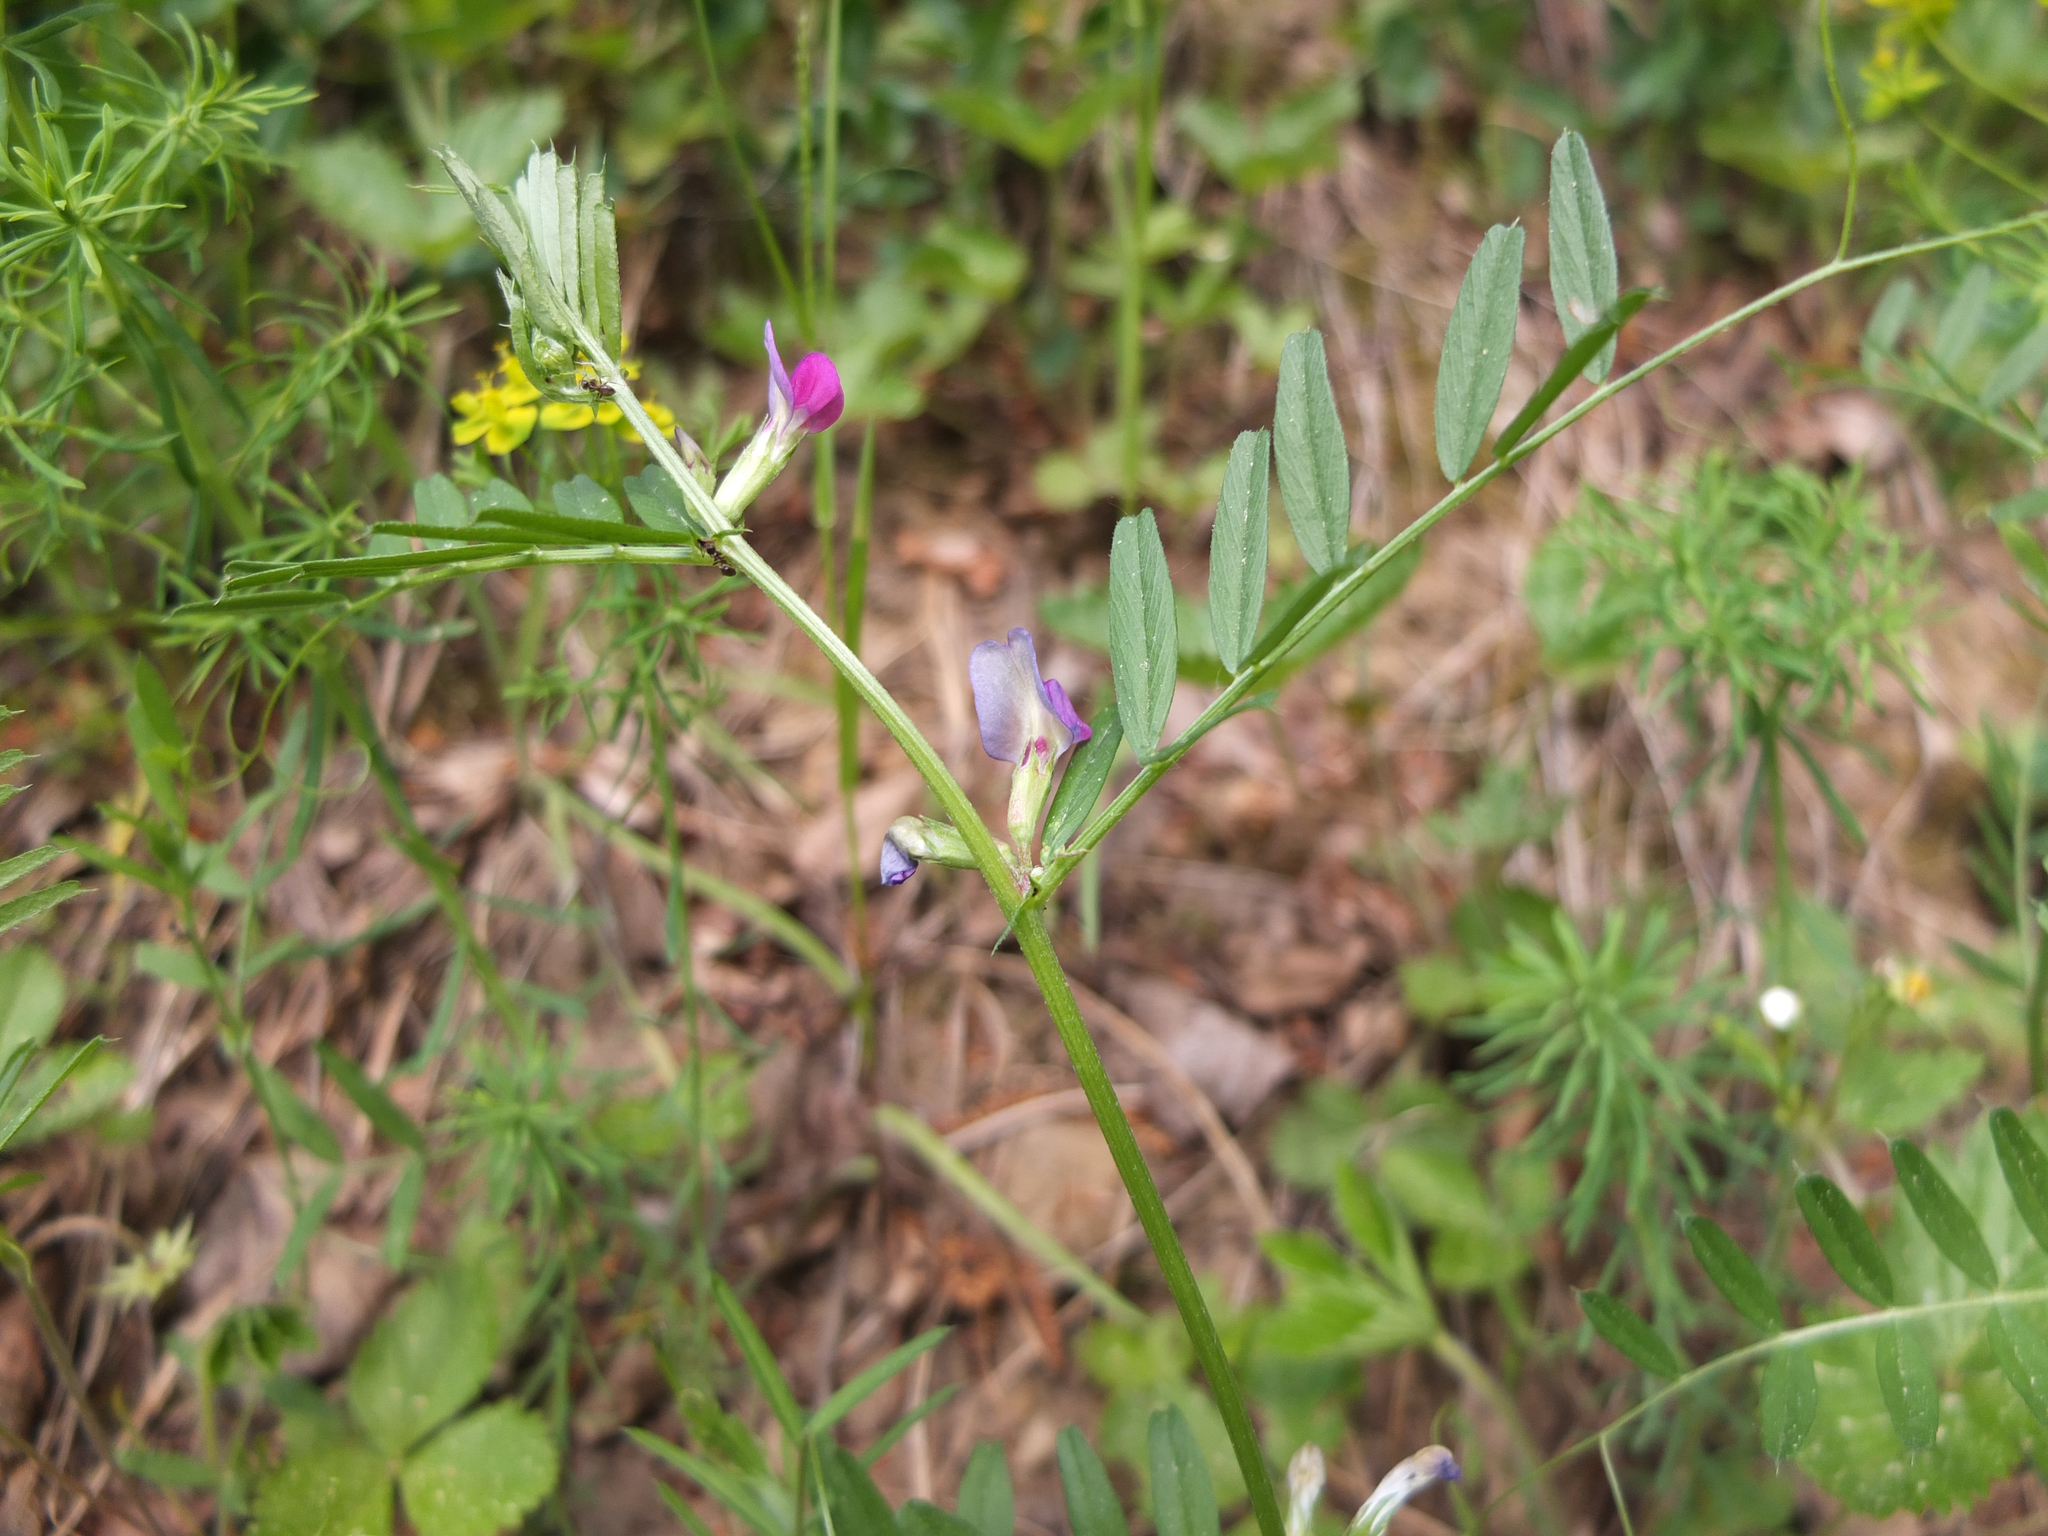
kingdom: Plantae
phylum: Tracheophyta
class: Magnoliopsida
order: Fabales
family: Fabaceae
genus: Vicia
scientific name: Vicia sativa
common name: Garden vetch
